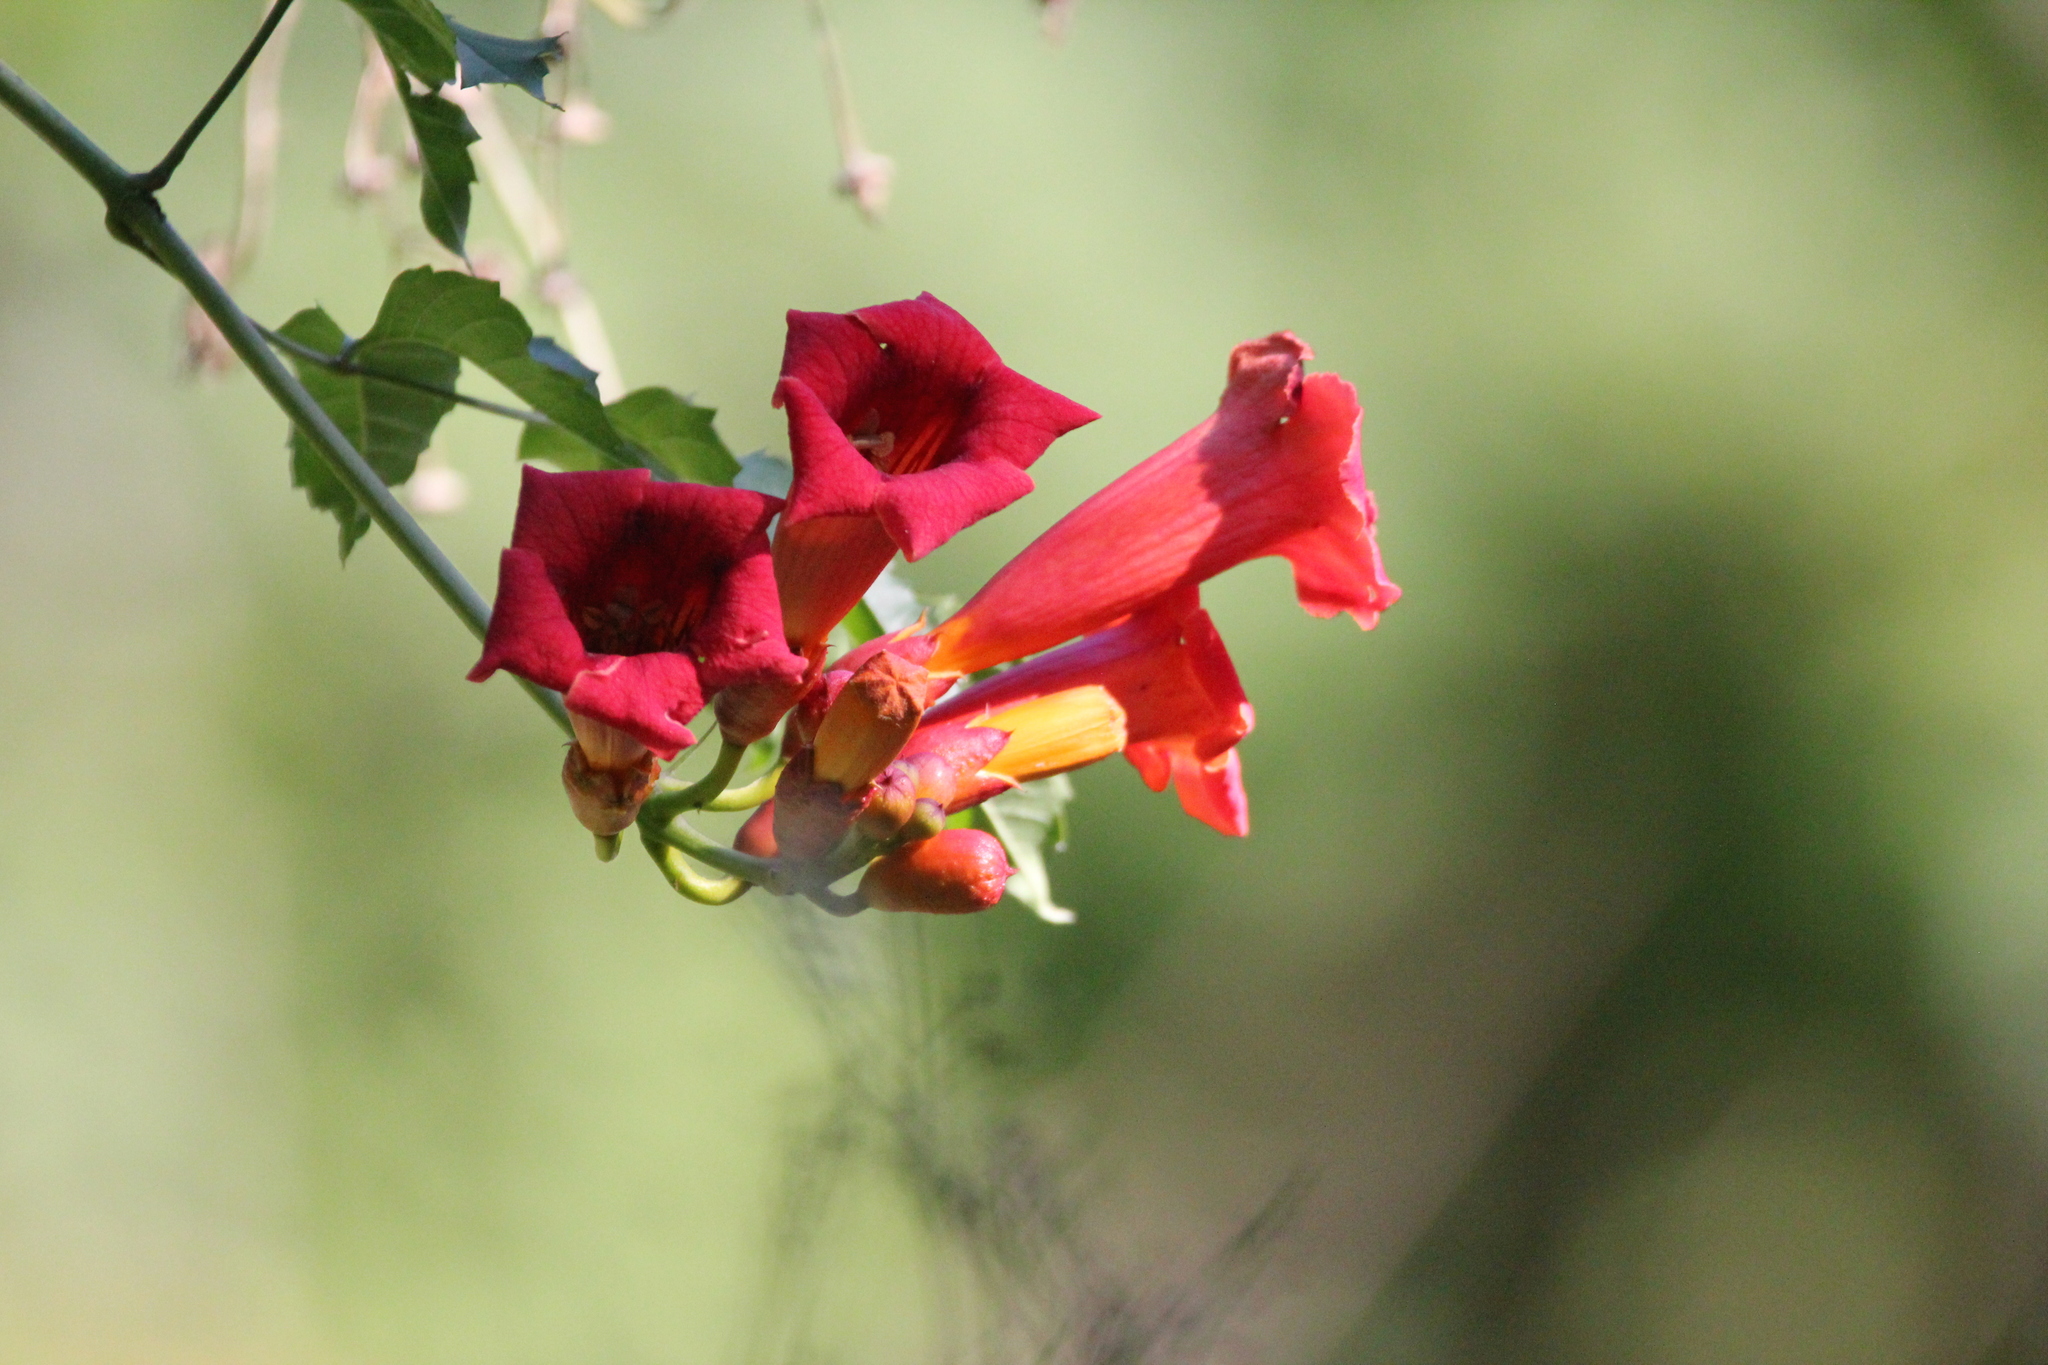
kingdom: Plantae
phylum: Tracheophyta
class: Magnoliopsida
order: Lamiales
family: Bignoniaceae
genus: Campsis
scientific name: Campsis radicans
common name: Trumpet-creeper
